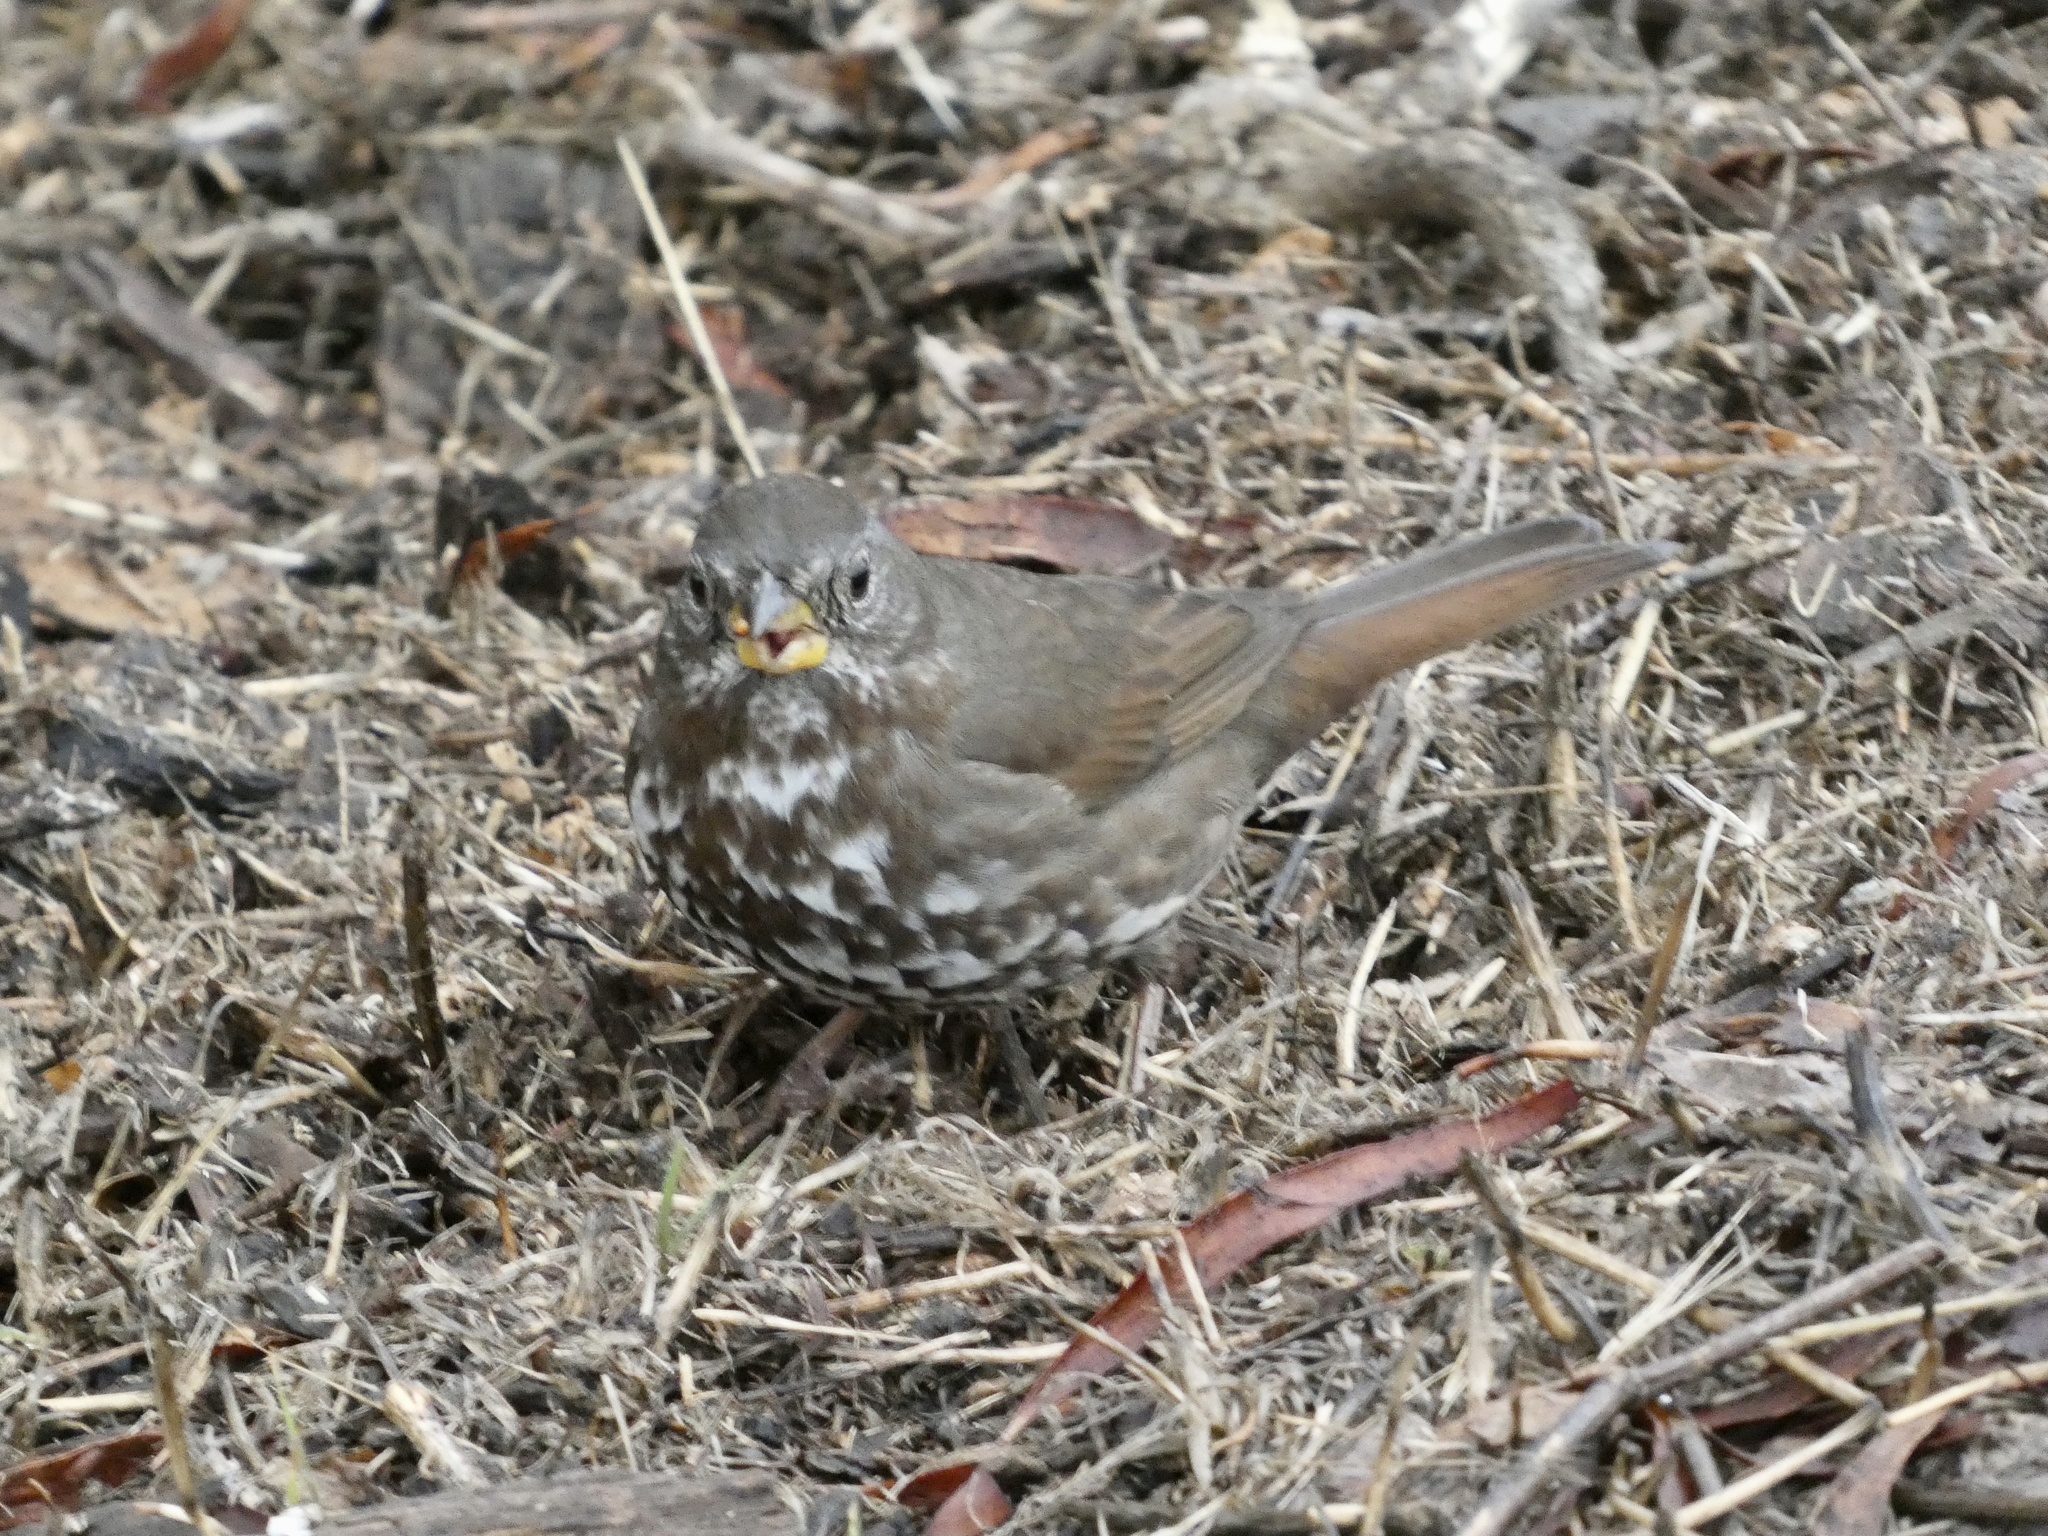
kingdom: Animalia
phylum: Chordata
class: Aves
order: Passeriformes
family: Passerellidae
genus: Passerella
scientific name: Passerella iliaca
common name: Fox sparrow
